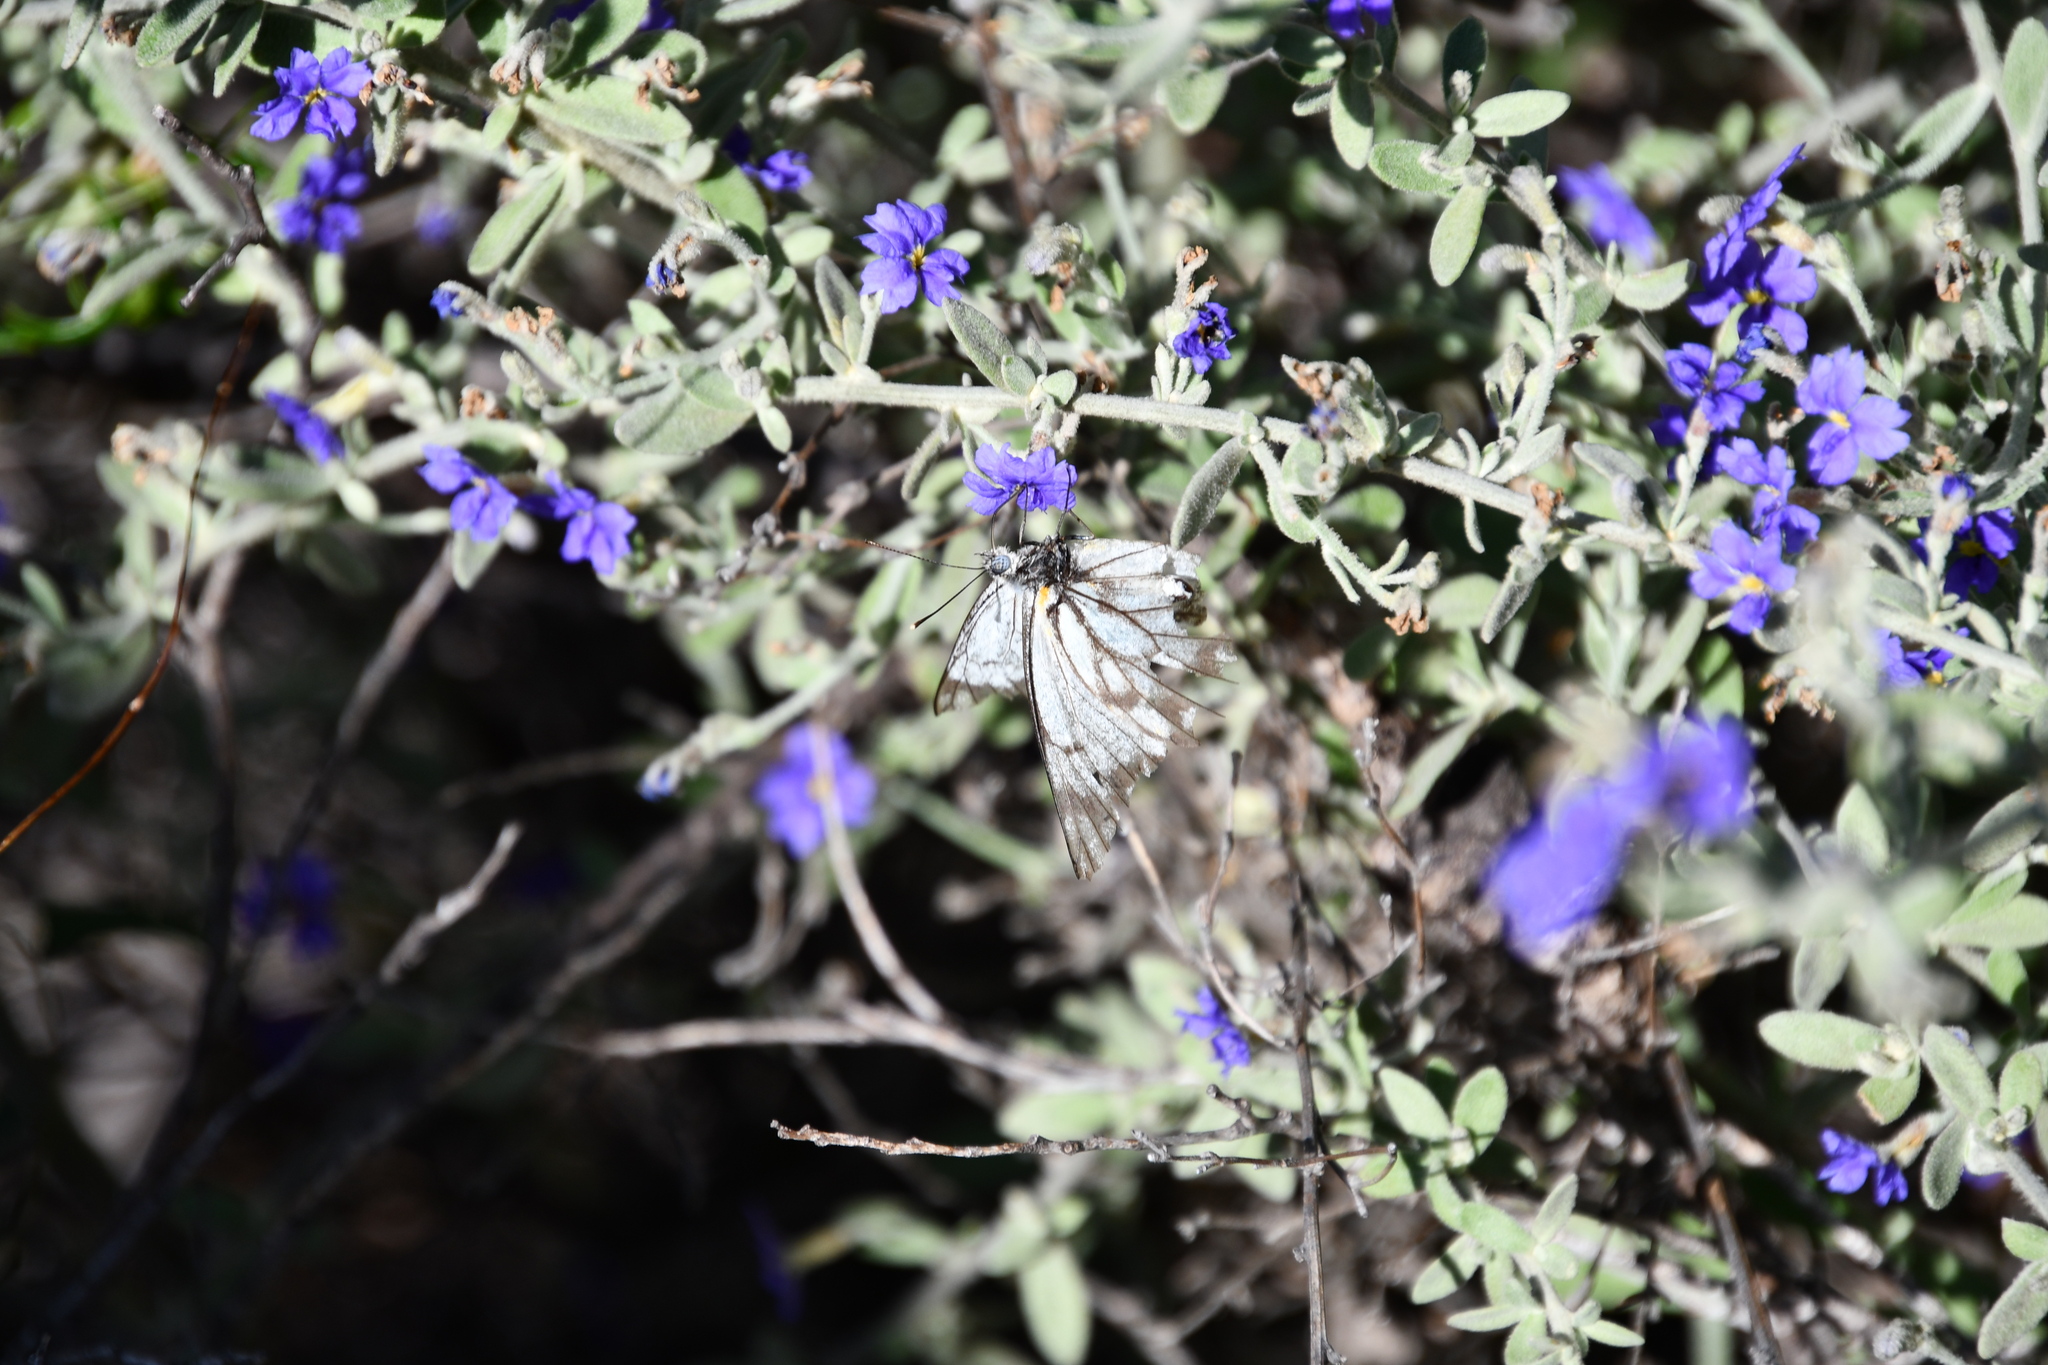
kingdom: Animalia
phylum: Arthropoda
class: Insecta
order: Lepidoptera
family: Pieridae
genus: Belenois
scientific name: Belenois java
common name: Caper white
